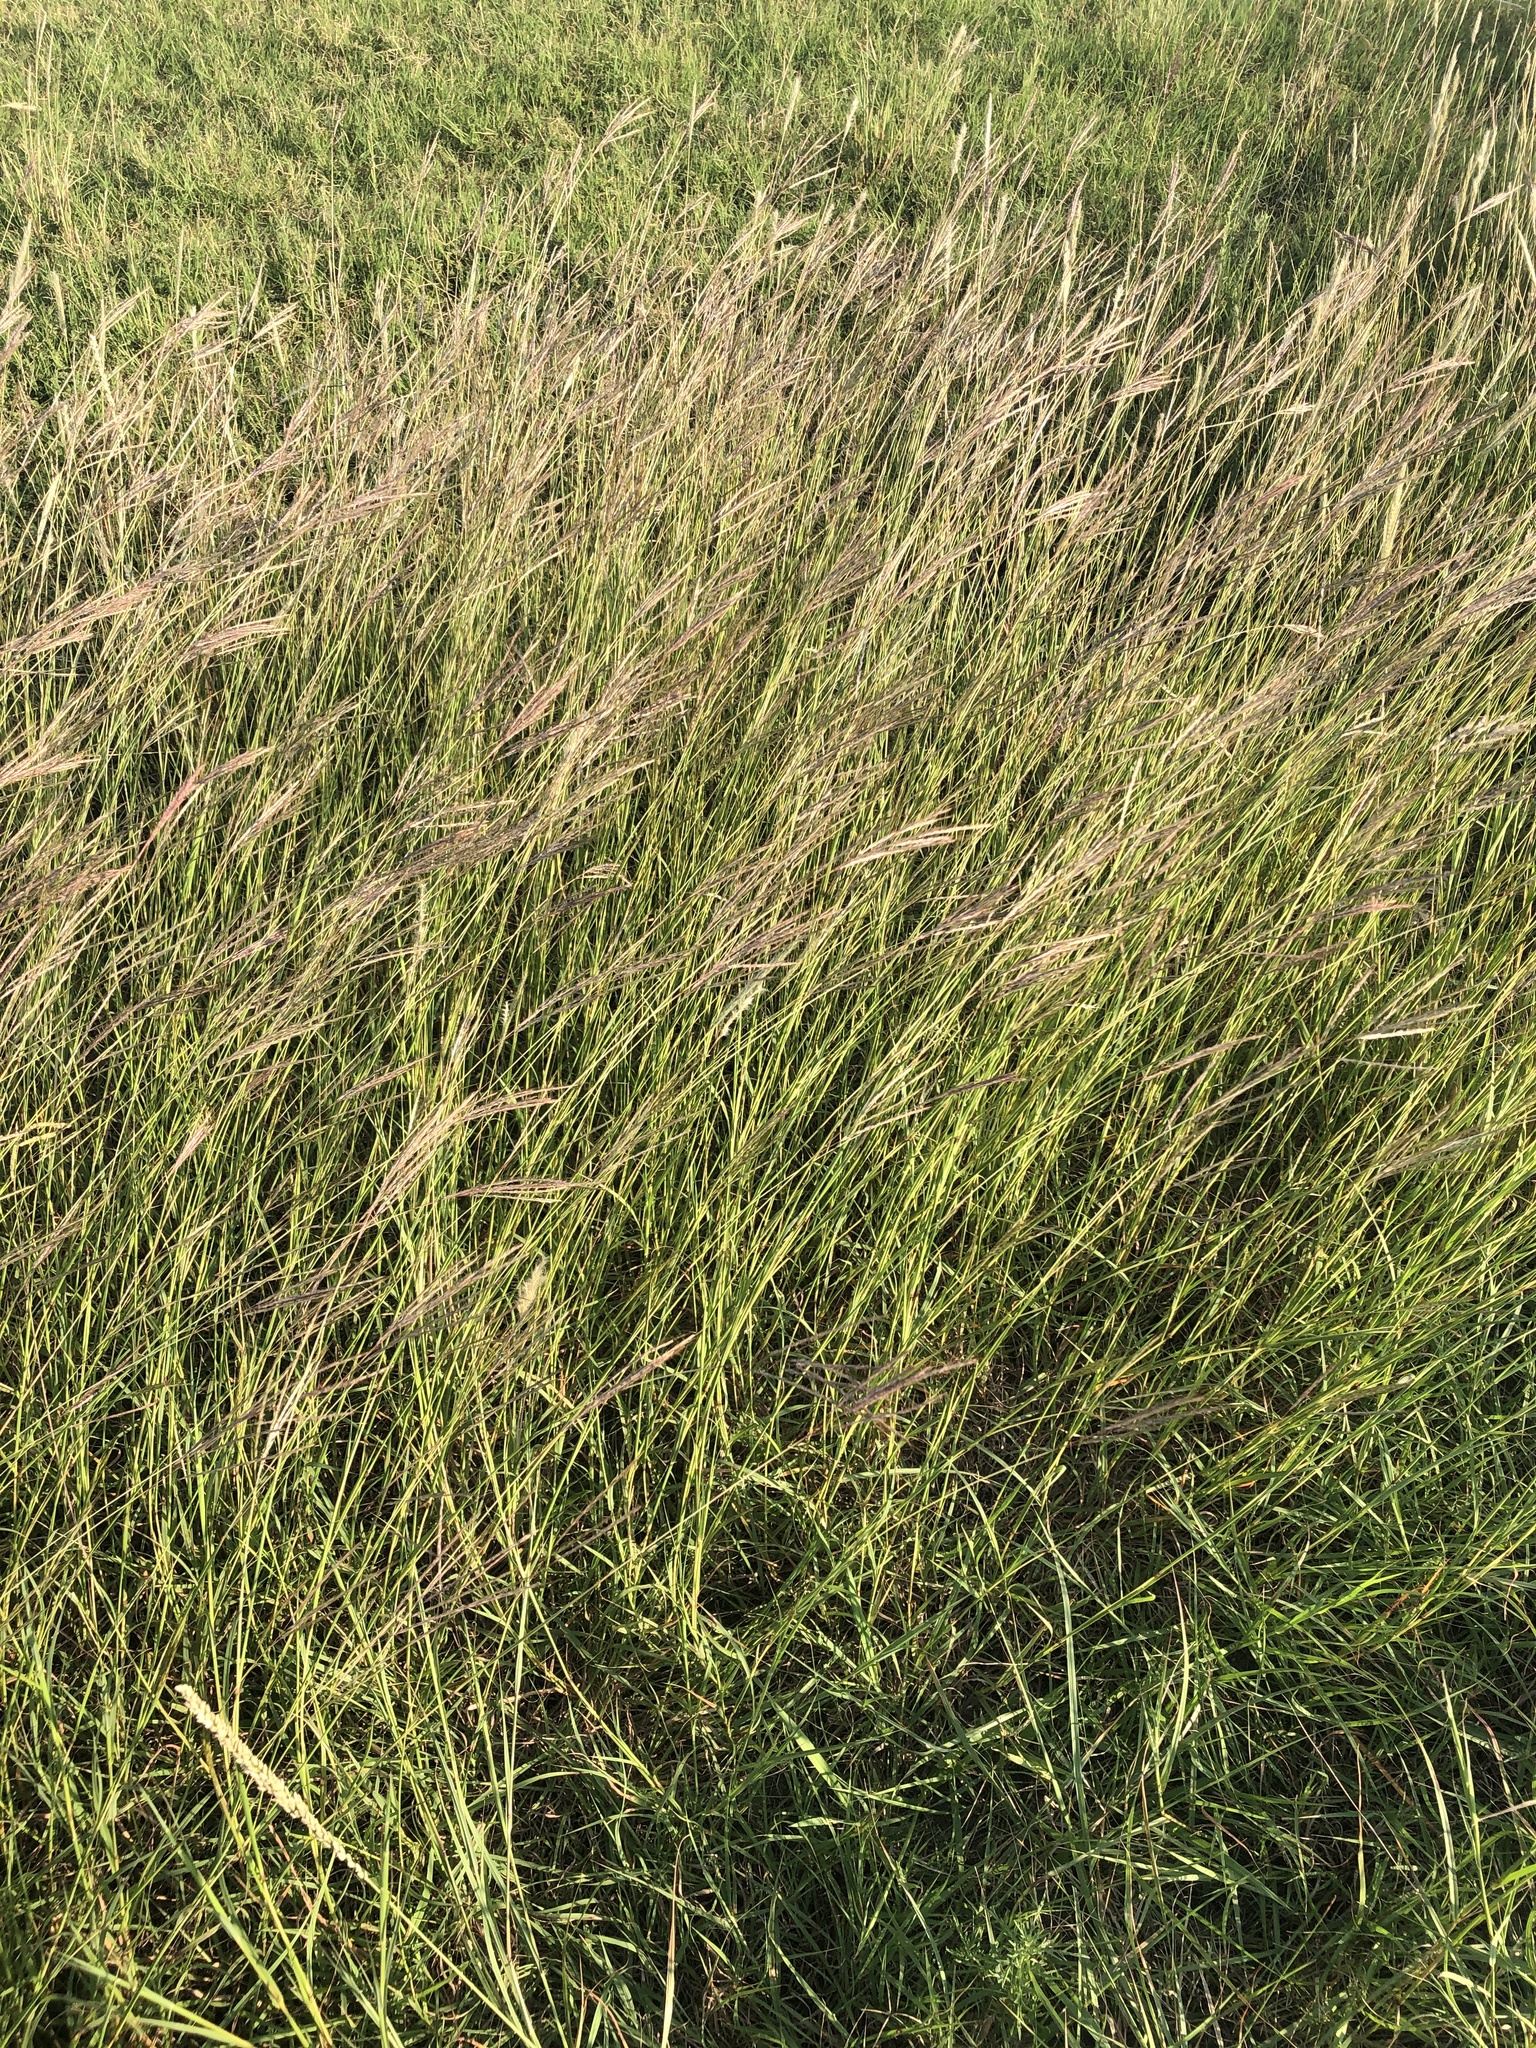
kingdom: Plantae
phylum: Tracheophyta
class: Liliopsida
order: Poales
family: Poaceae
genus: Bothriochloa
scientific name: Bothriochloa ischaemum
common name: Yellow bluestem
